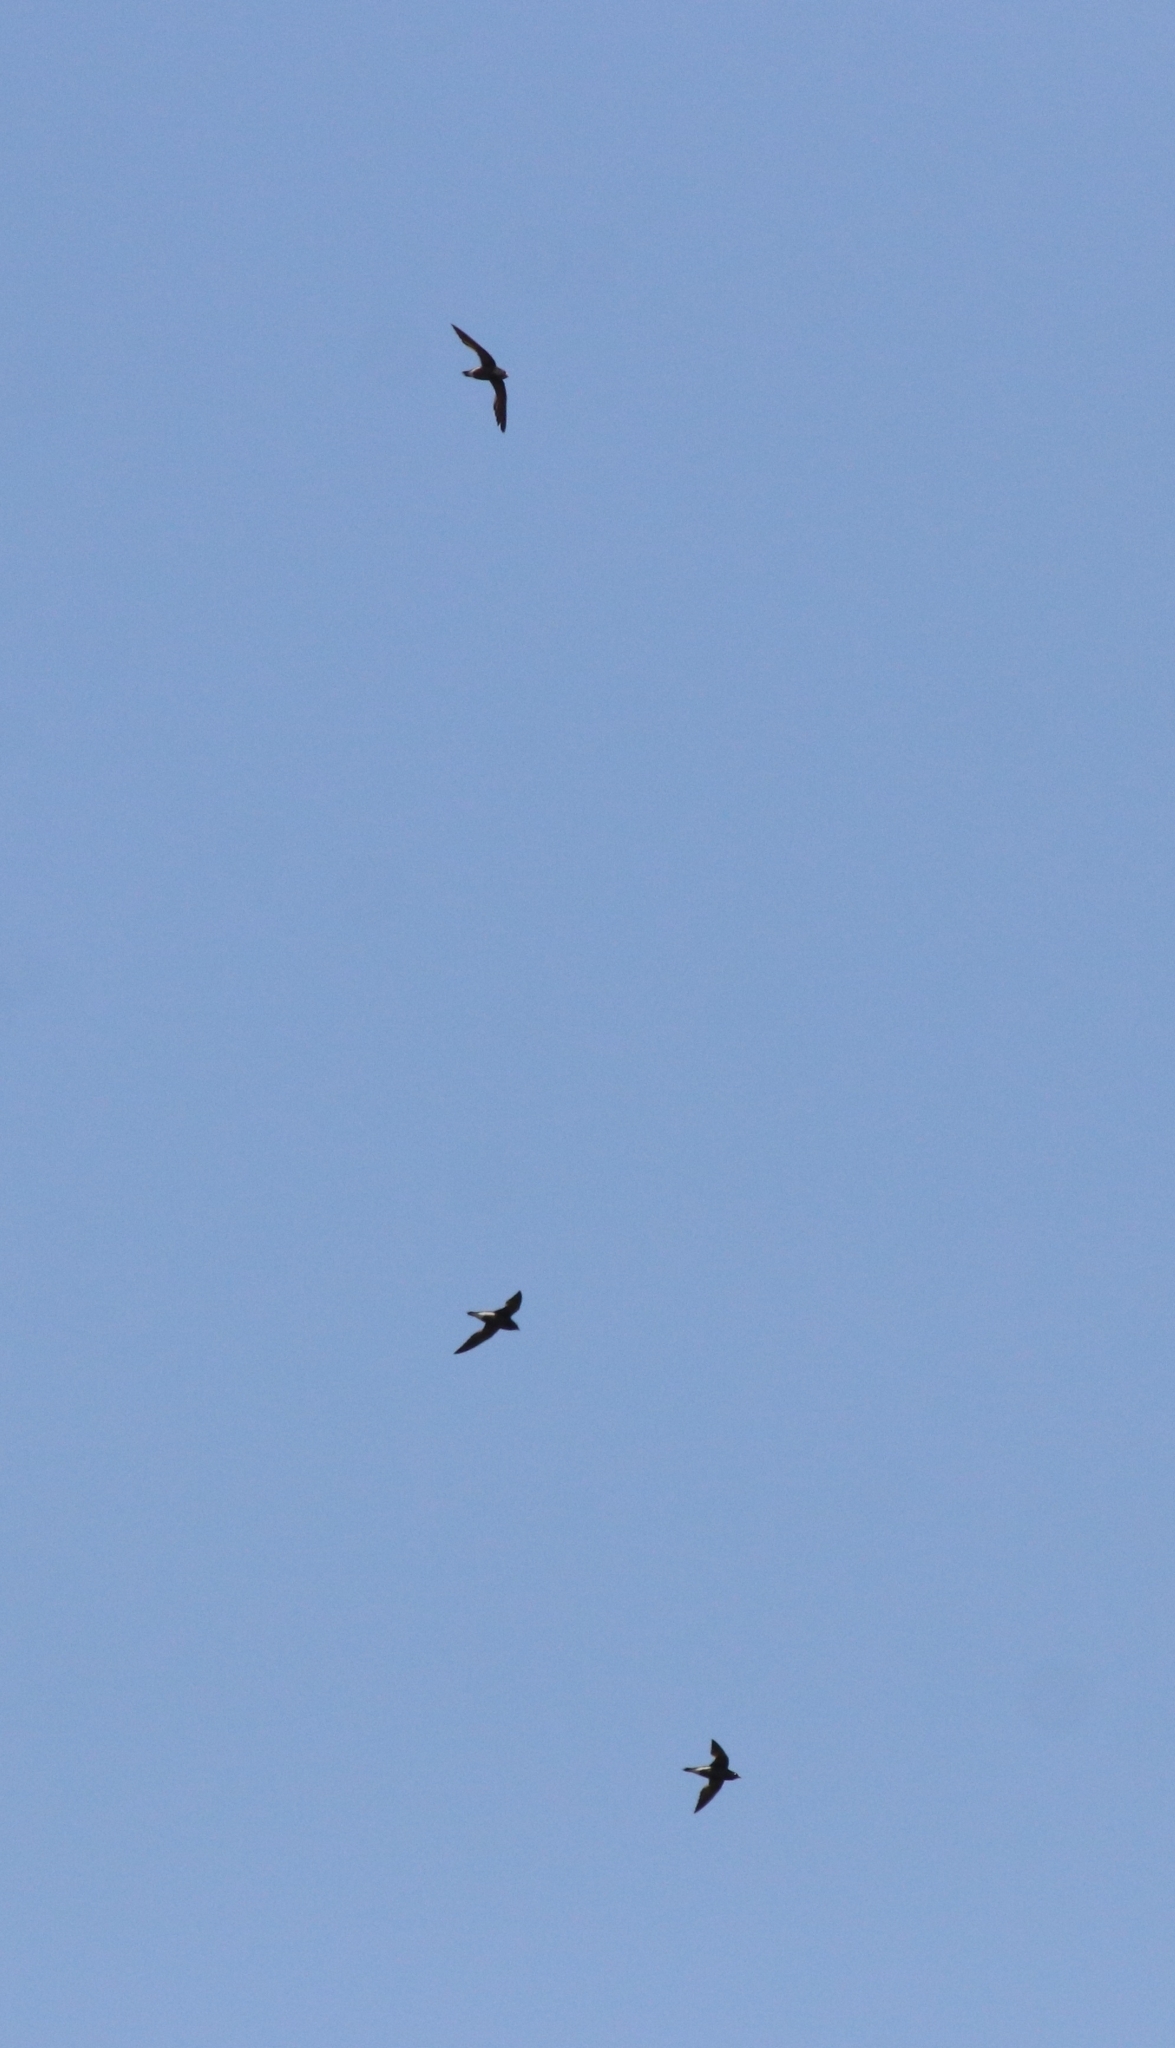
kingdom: Animalia
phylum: Chordata
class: Aves
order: Apodiformes
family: Apodidae
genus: Hirundapus
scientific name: Hirundapus giganteus
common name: Brown-backed needletail
